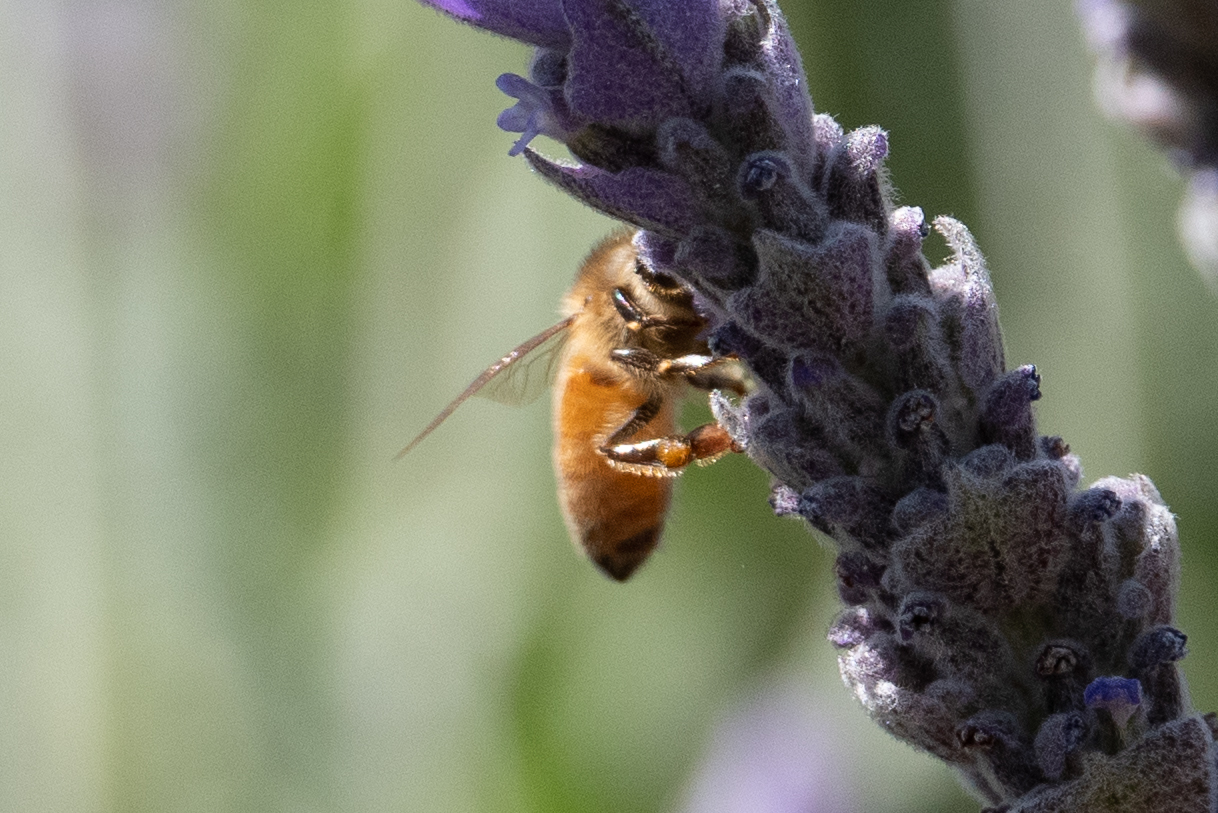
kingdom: Animalia
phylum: Arthropoda
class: Insecta
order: Hymenoptera
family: Apidae
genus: Apis
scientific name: Apis mellifera
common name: Honey bee
